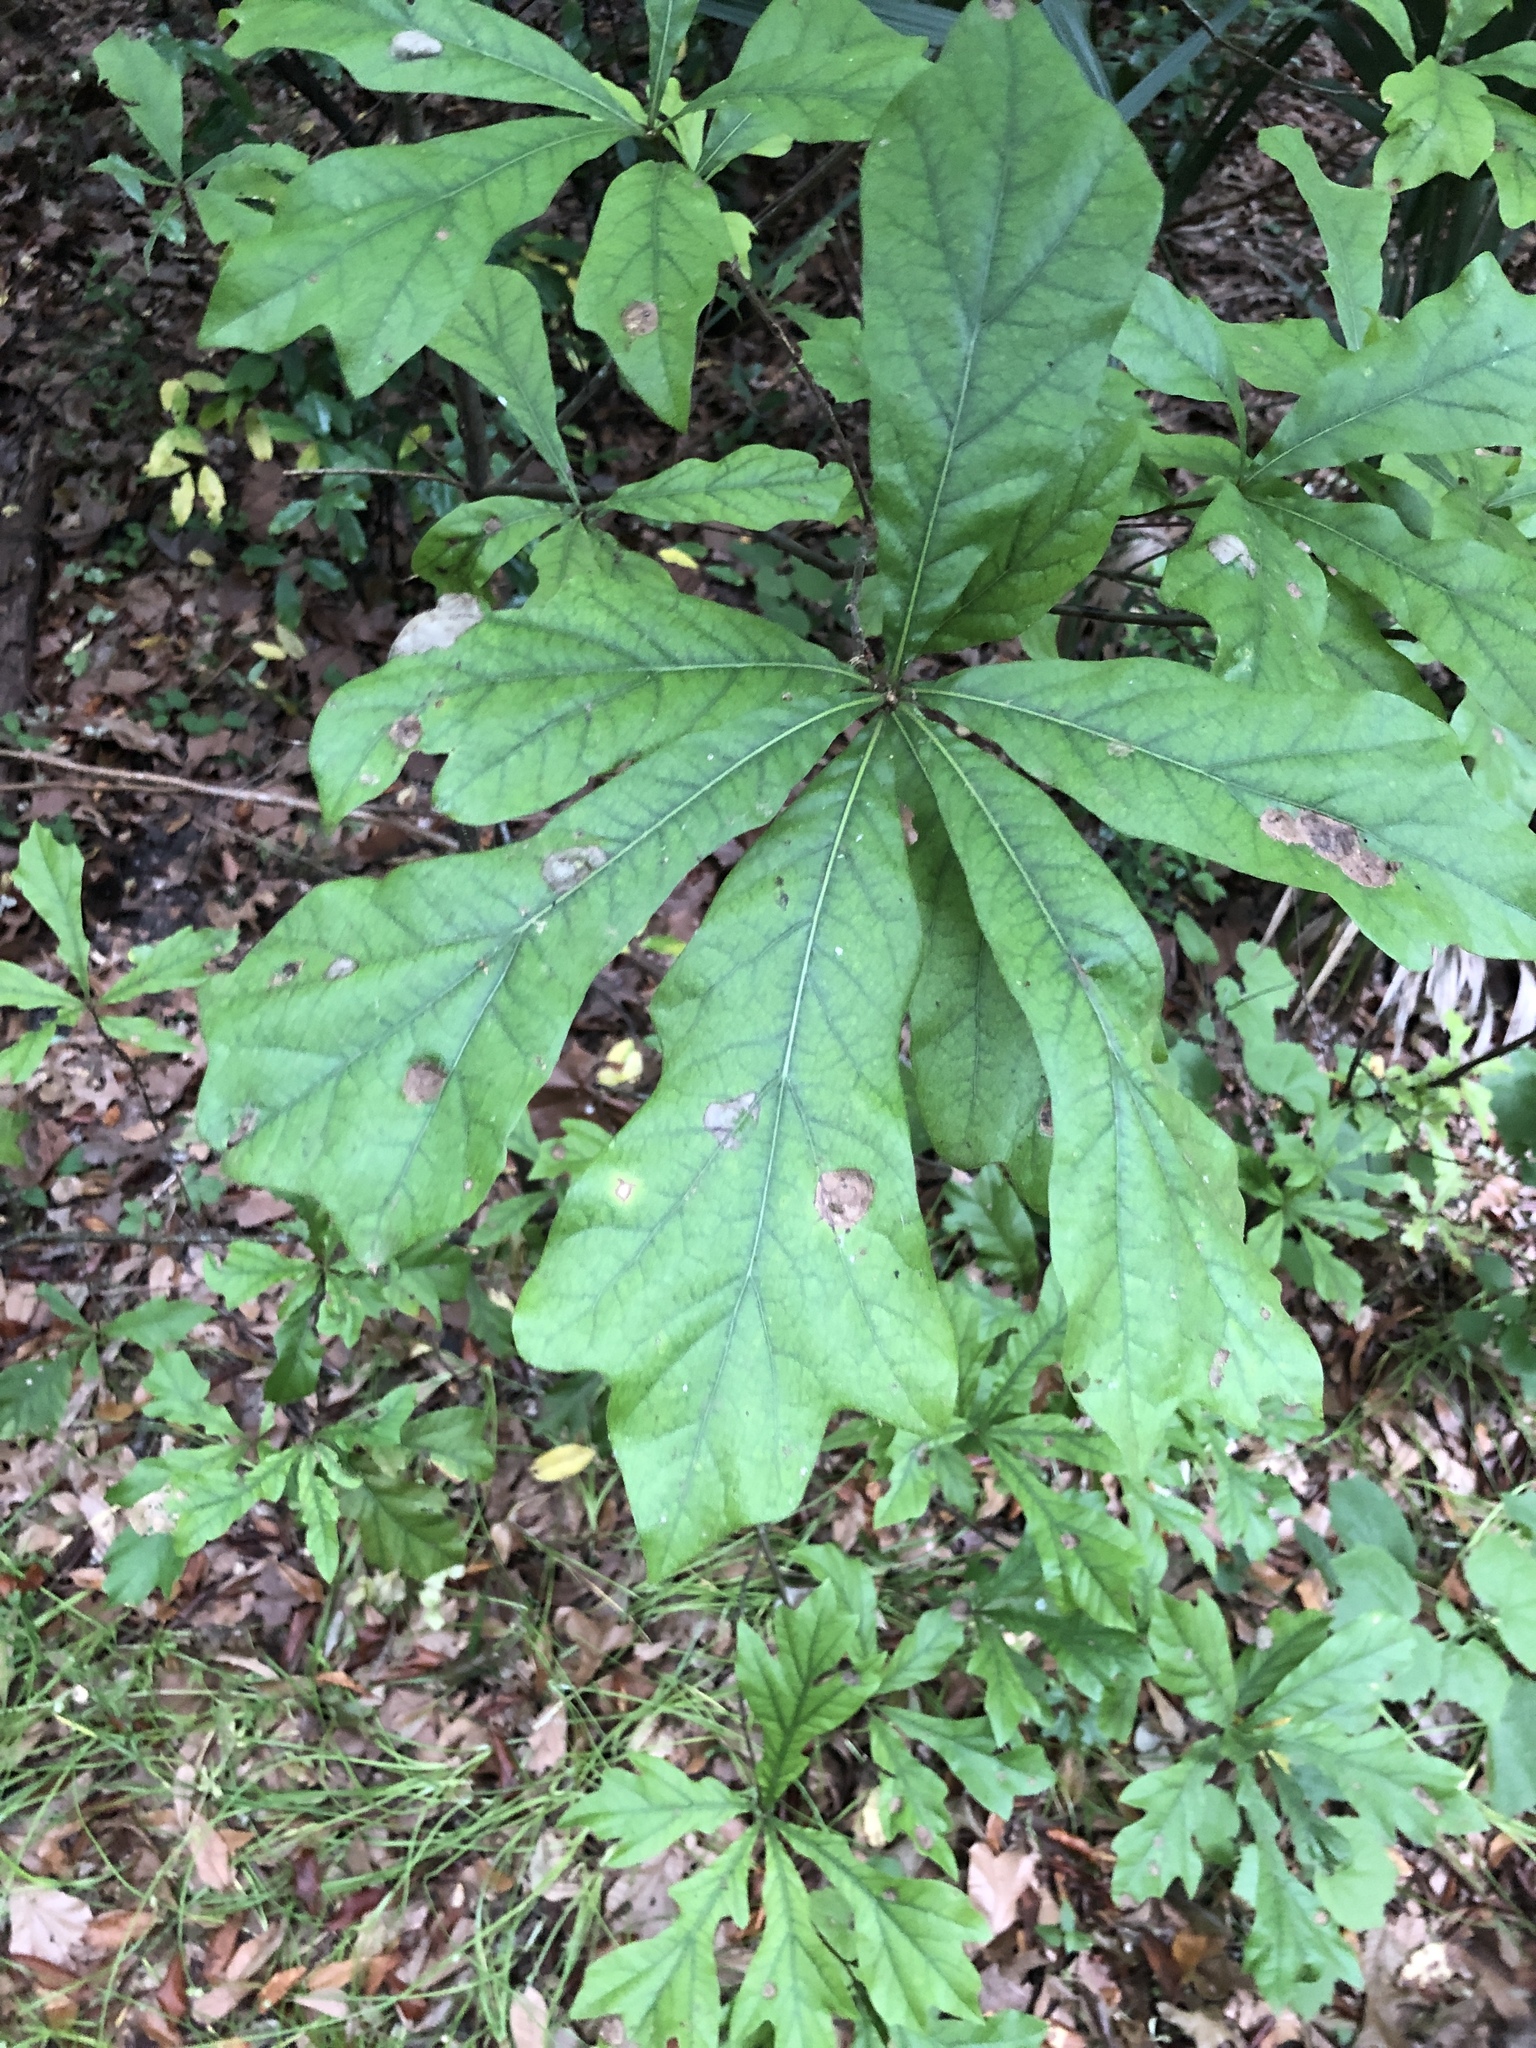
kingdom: Plantae
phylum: Tracheophyta
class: Magnoliopsida
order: Fagales
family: Fagaceae
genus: Quercus
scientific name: Quercus nigra
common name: Water oak
